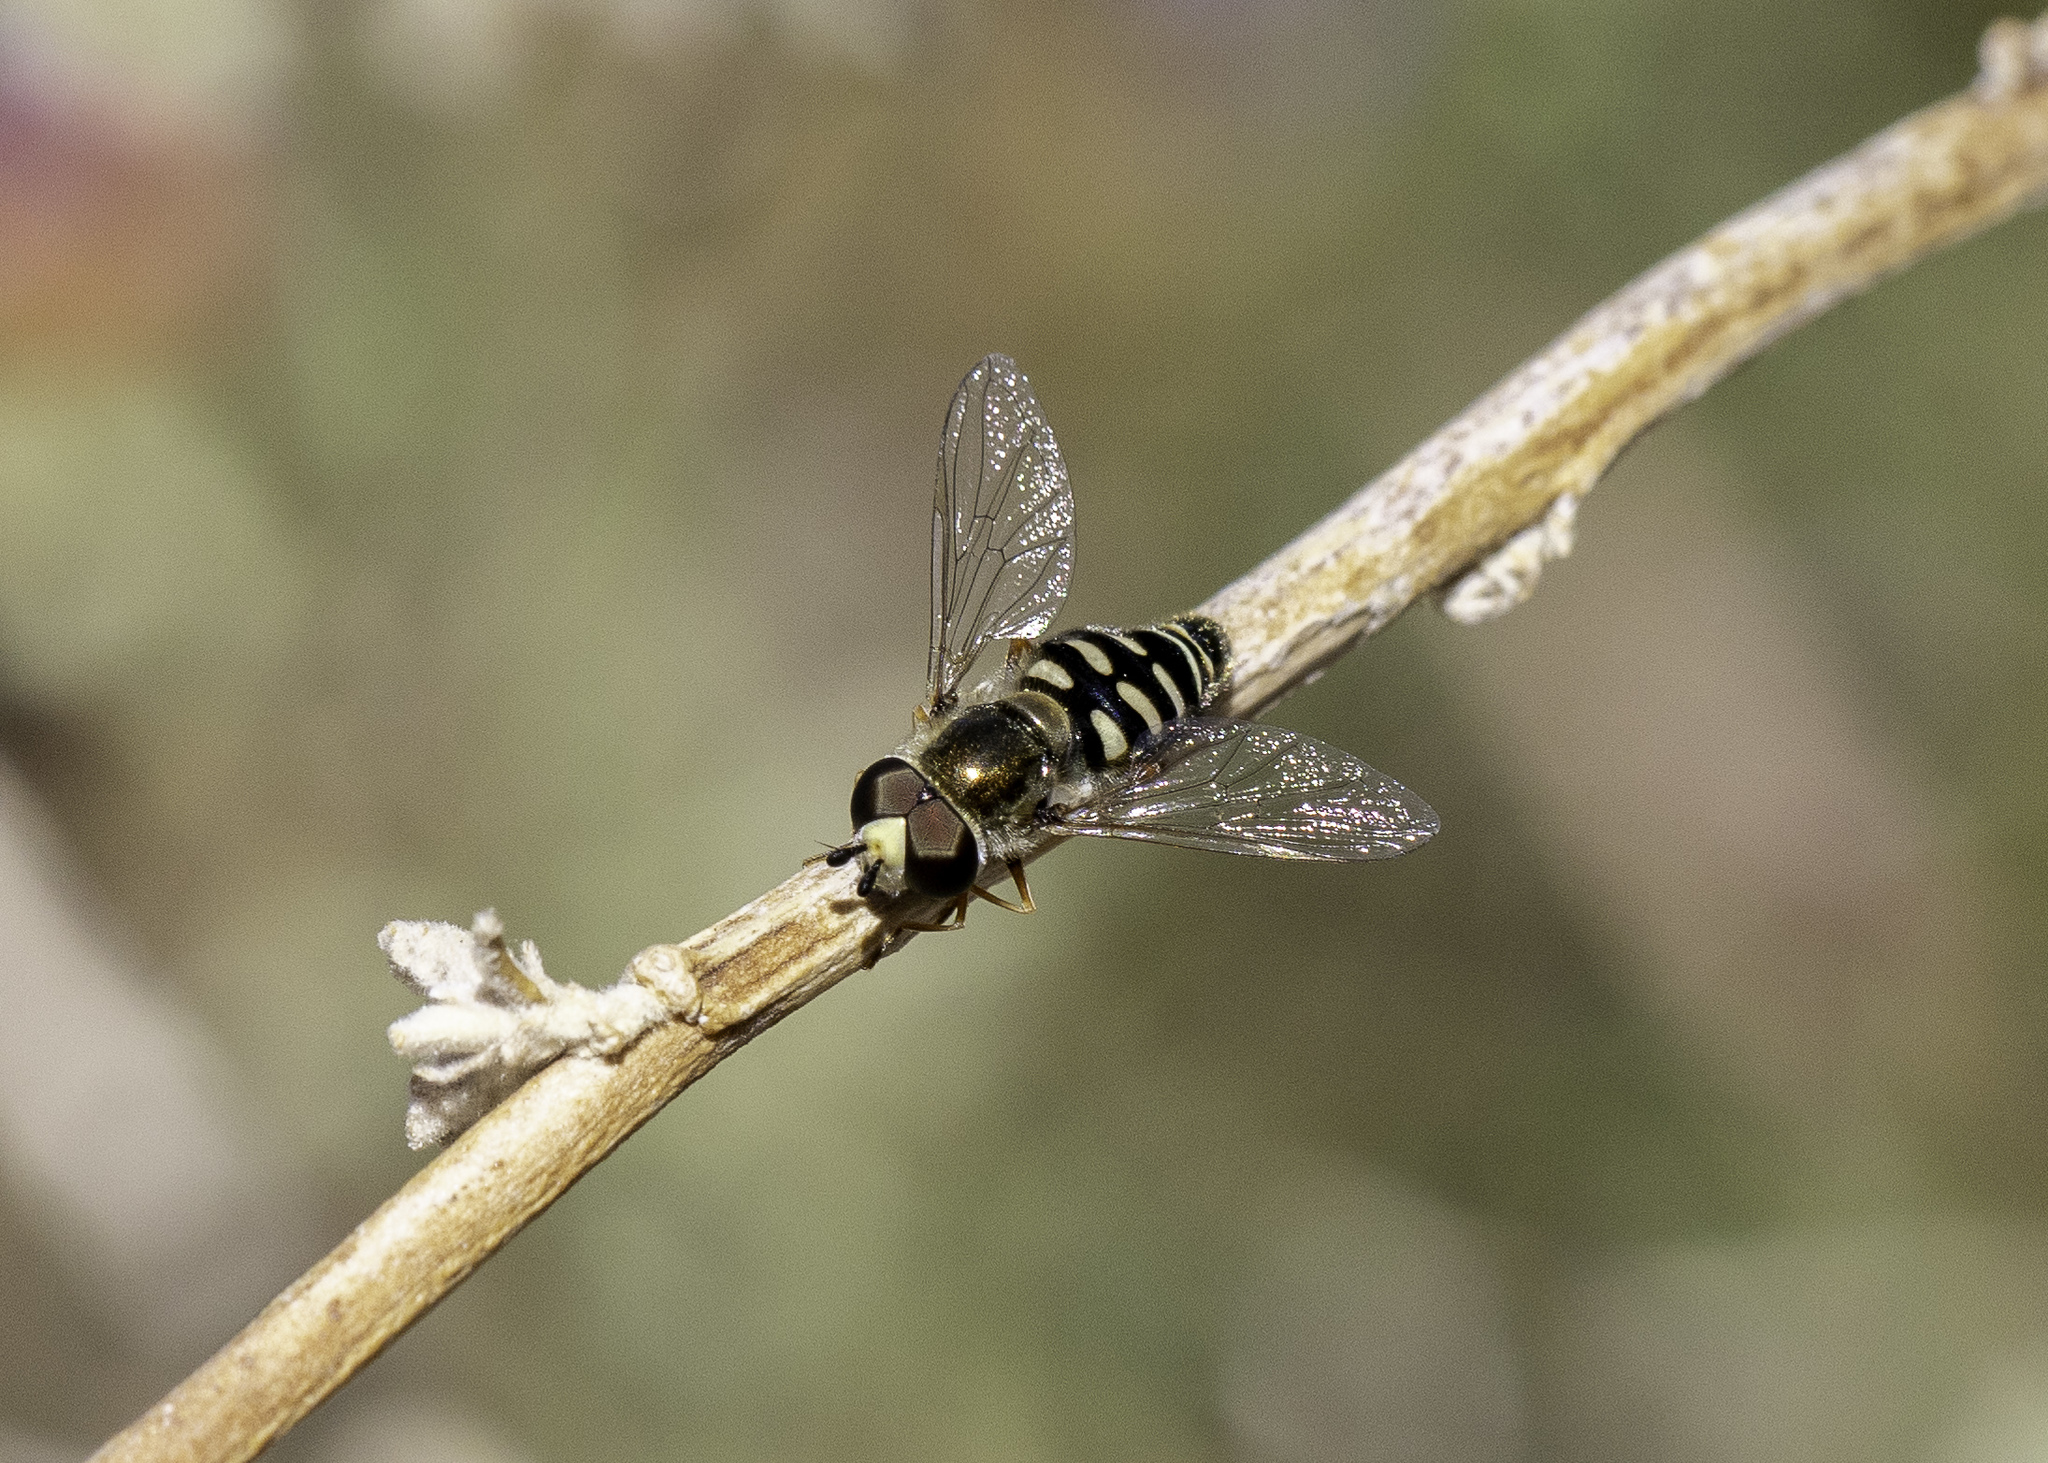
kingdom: Animalia
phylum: Arthropoda
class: Insecta
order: Diptera
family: Syrphidae
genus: Eupeodes
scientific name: Eupeodes volucris
